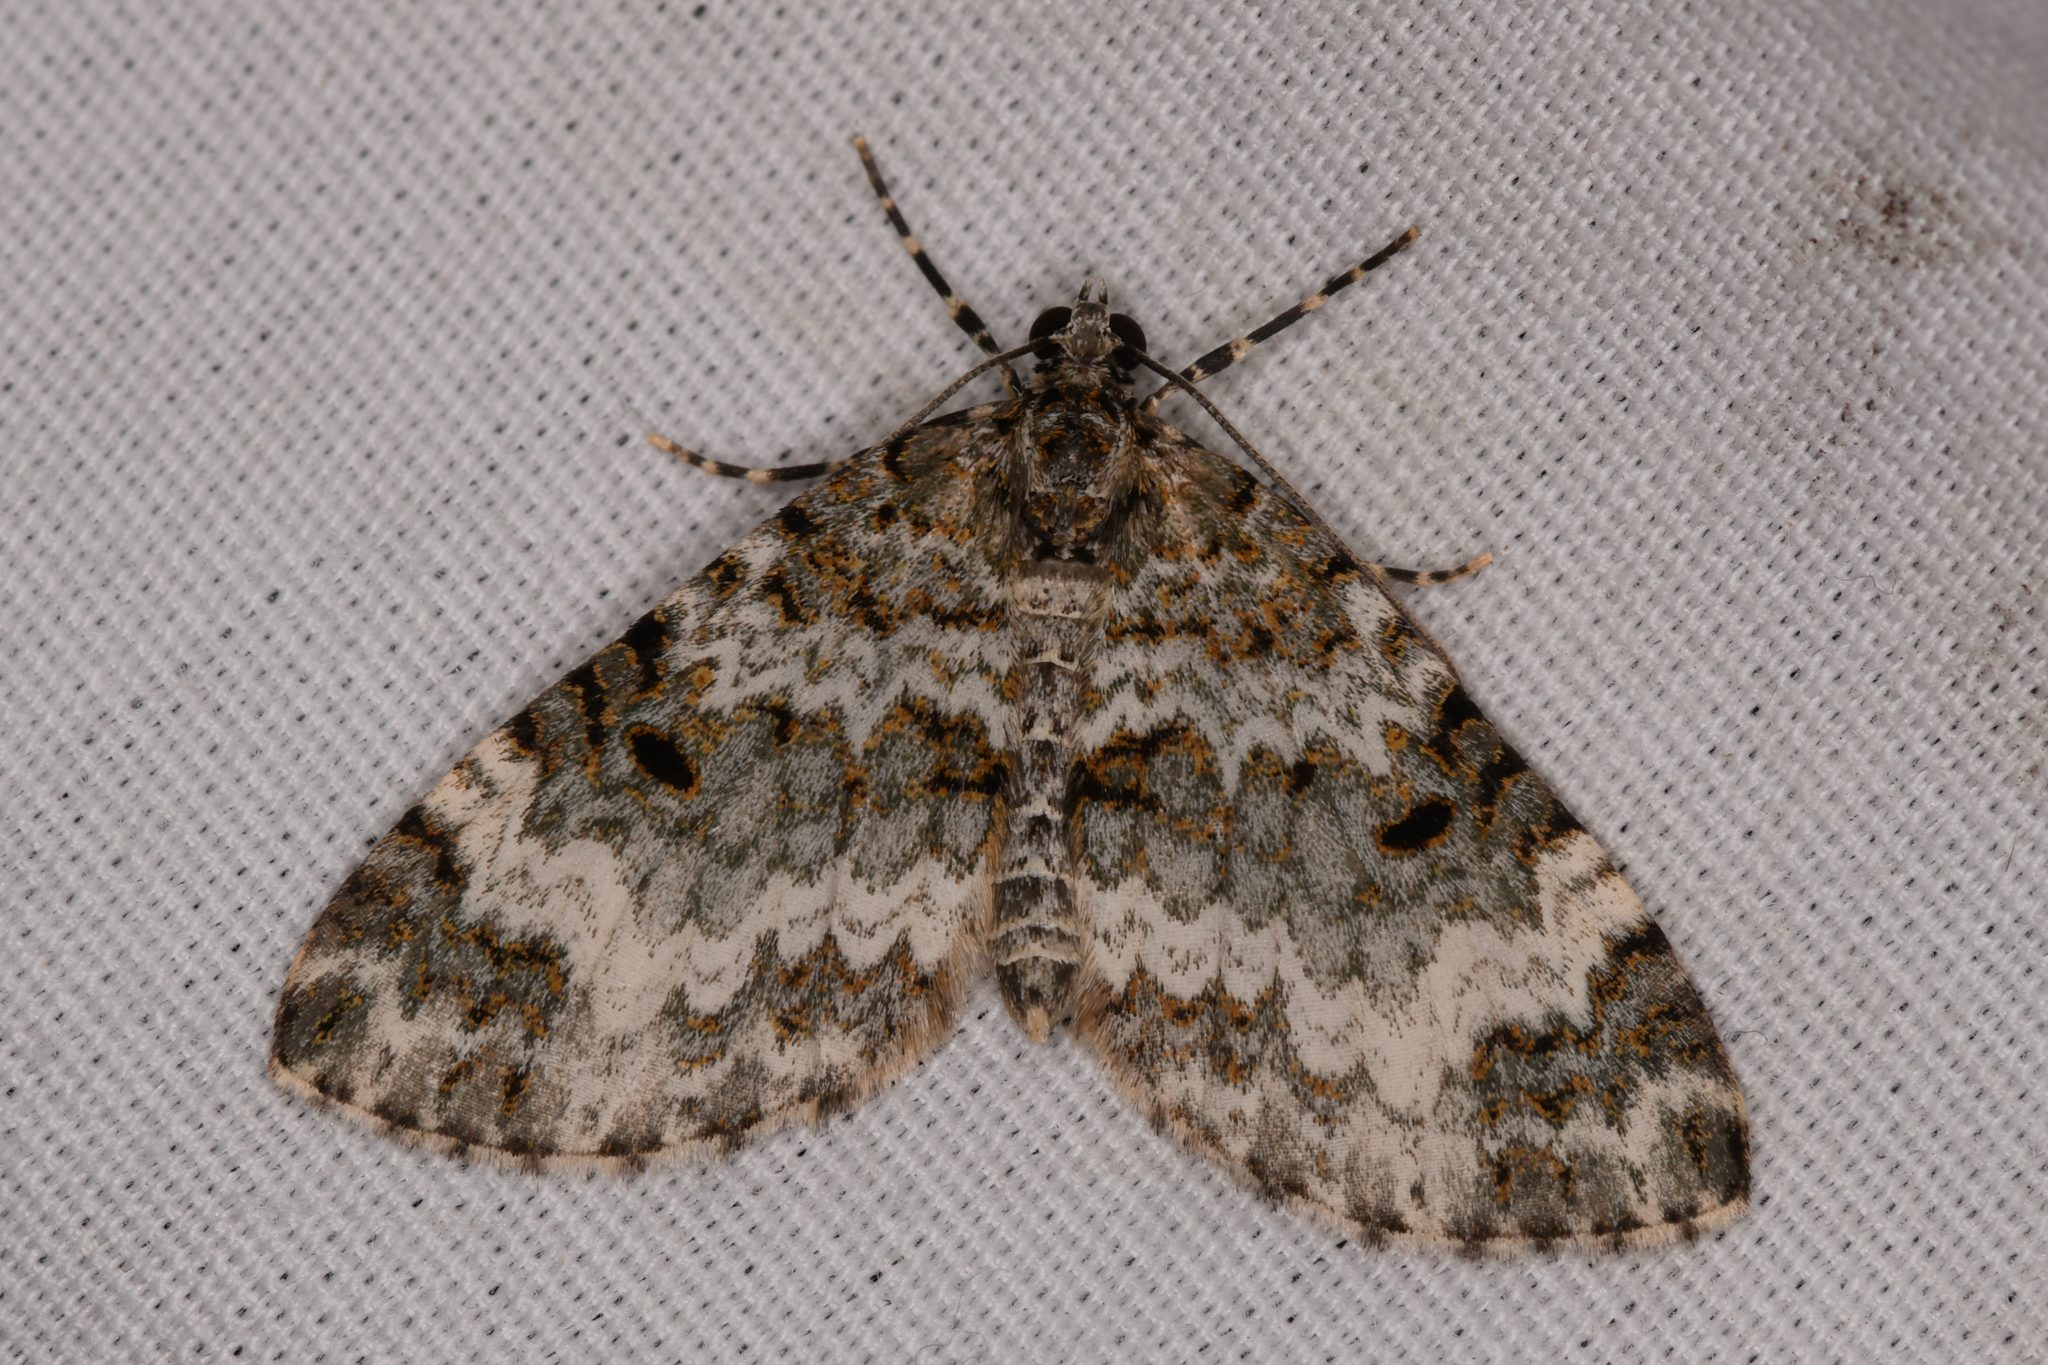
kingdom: Animalia
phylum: Arthropoda
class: Insecta
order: Lepidoptera
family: Geometridae
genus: Spargania
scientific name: Spargania magnoliata
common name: Double-banded carpet
